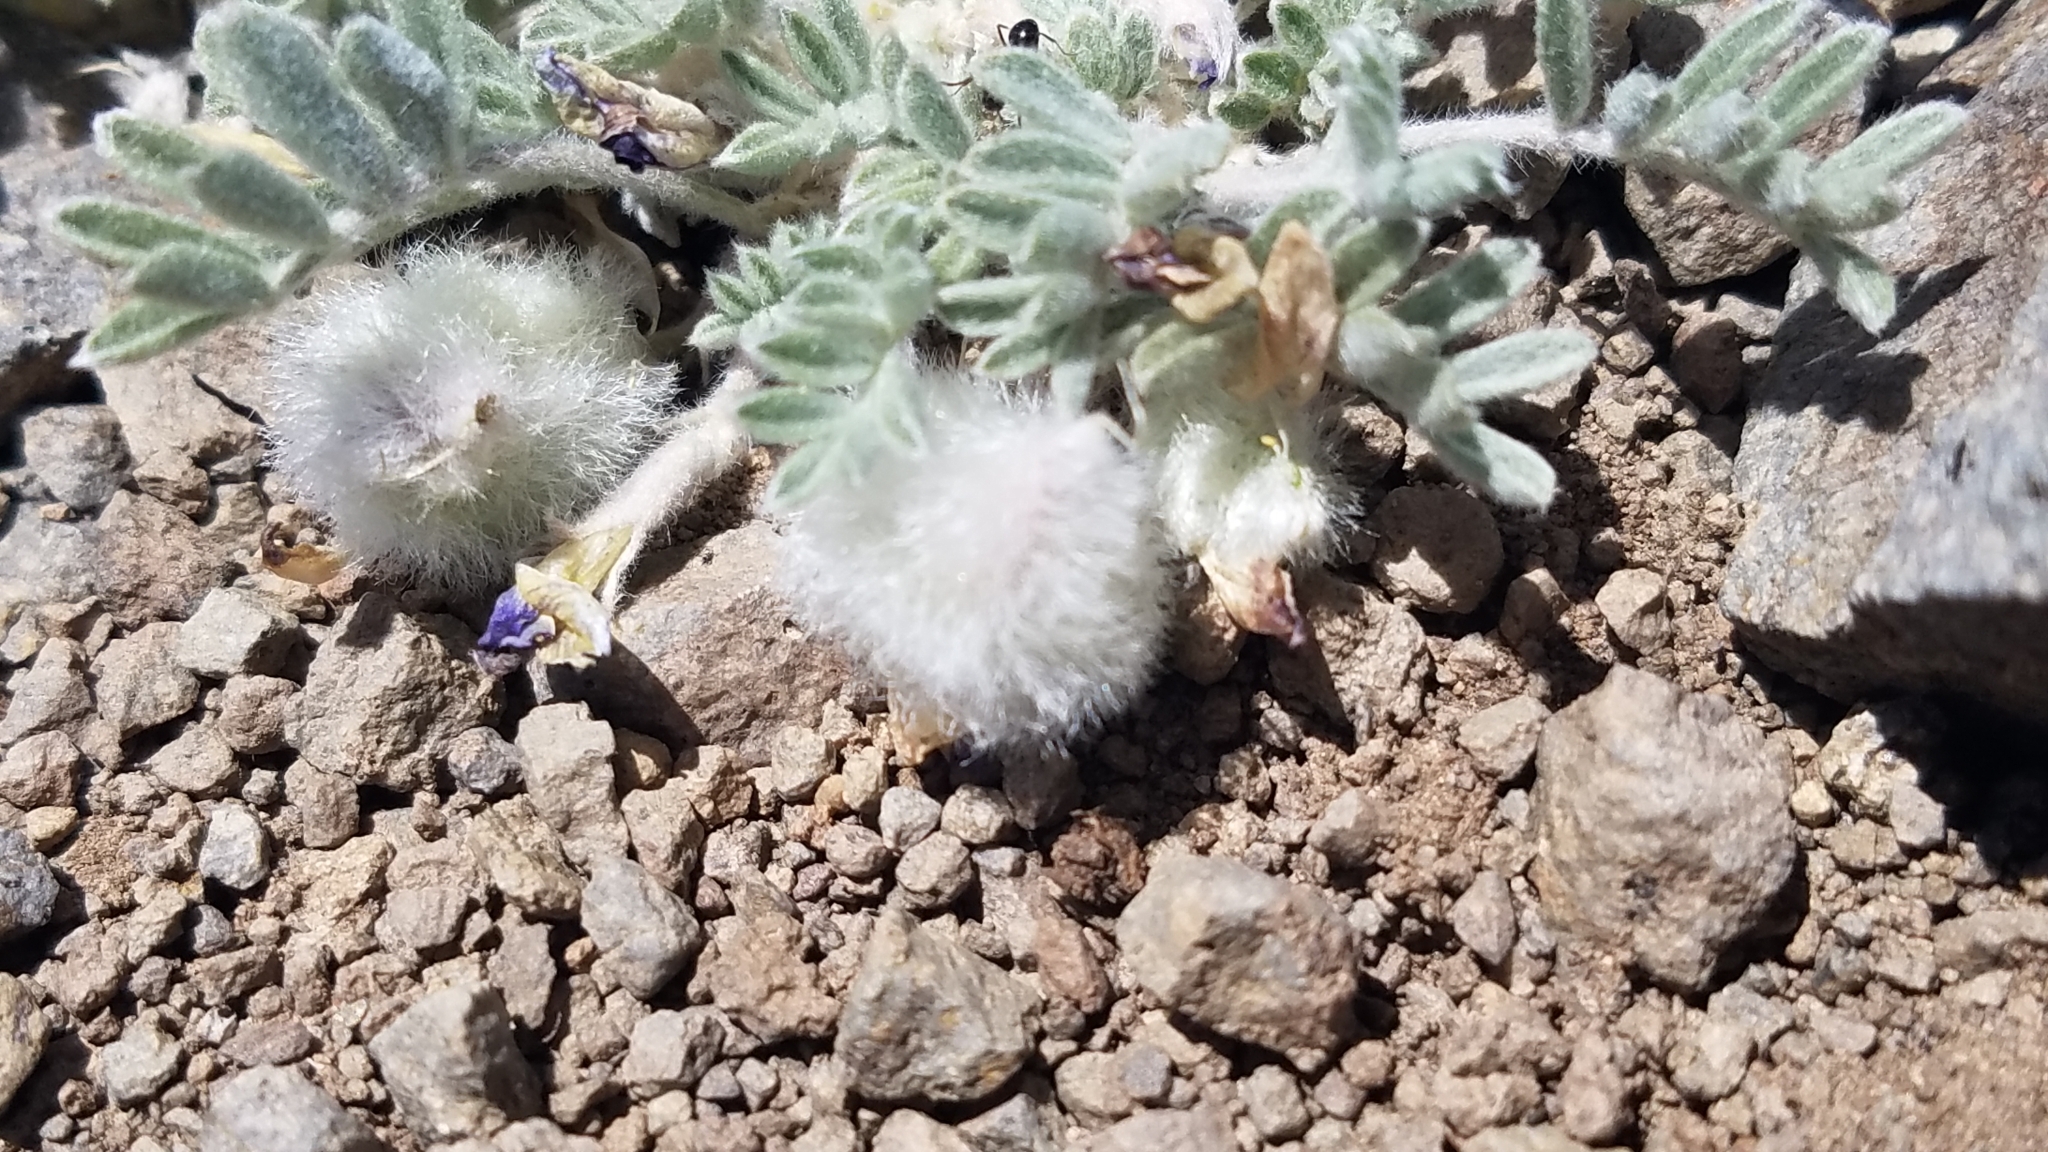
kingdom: Plantae
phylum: Tracheophyta
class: Magnoliopsida
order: Fabales
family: Fabaceae
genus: Astragalus
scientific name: Astragalus purshii
